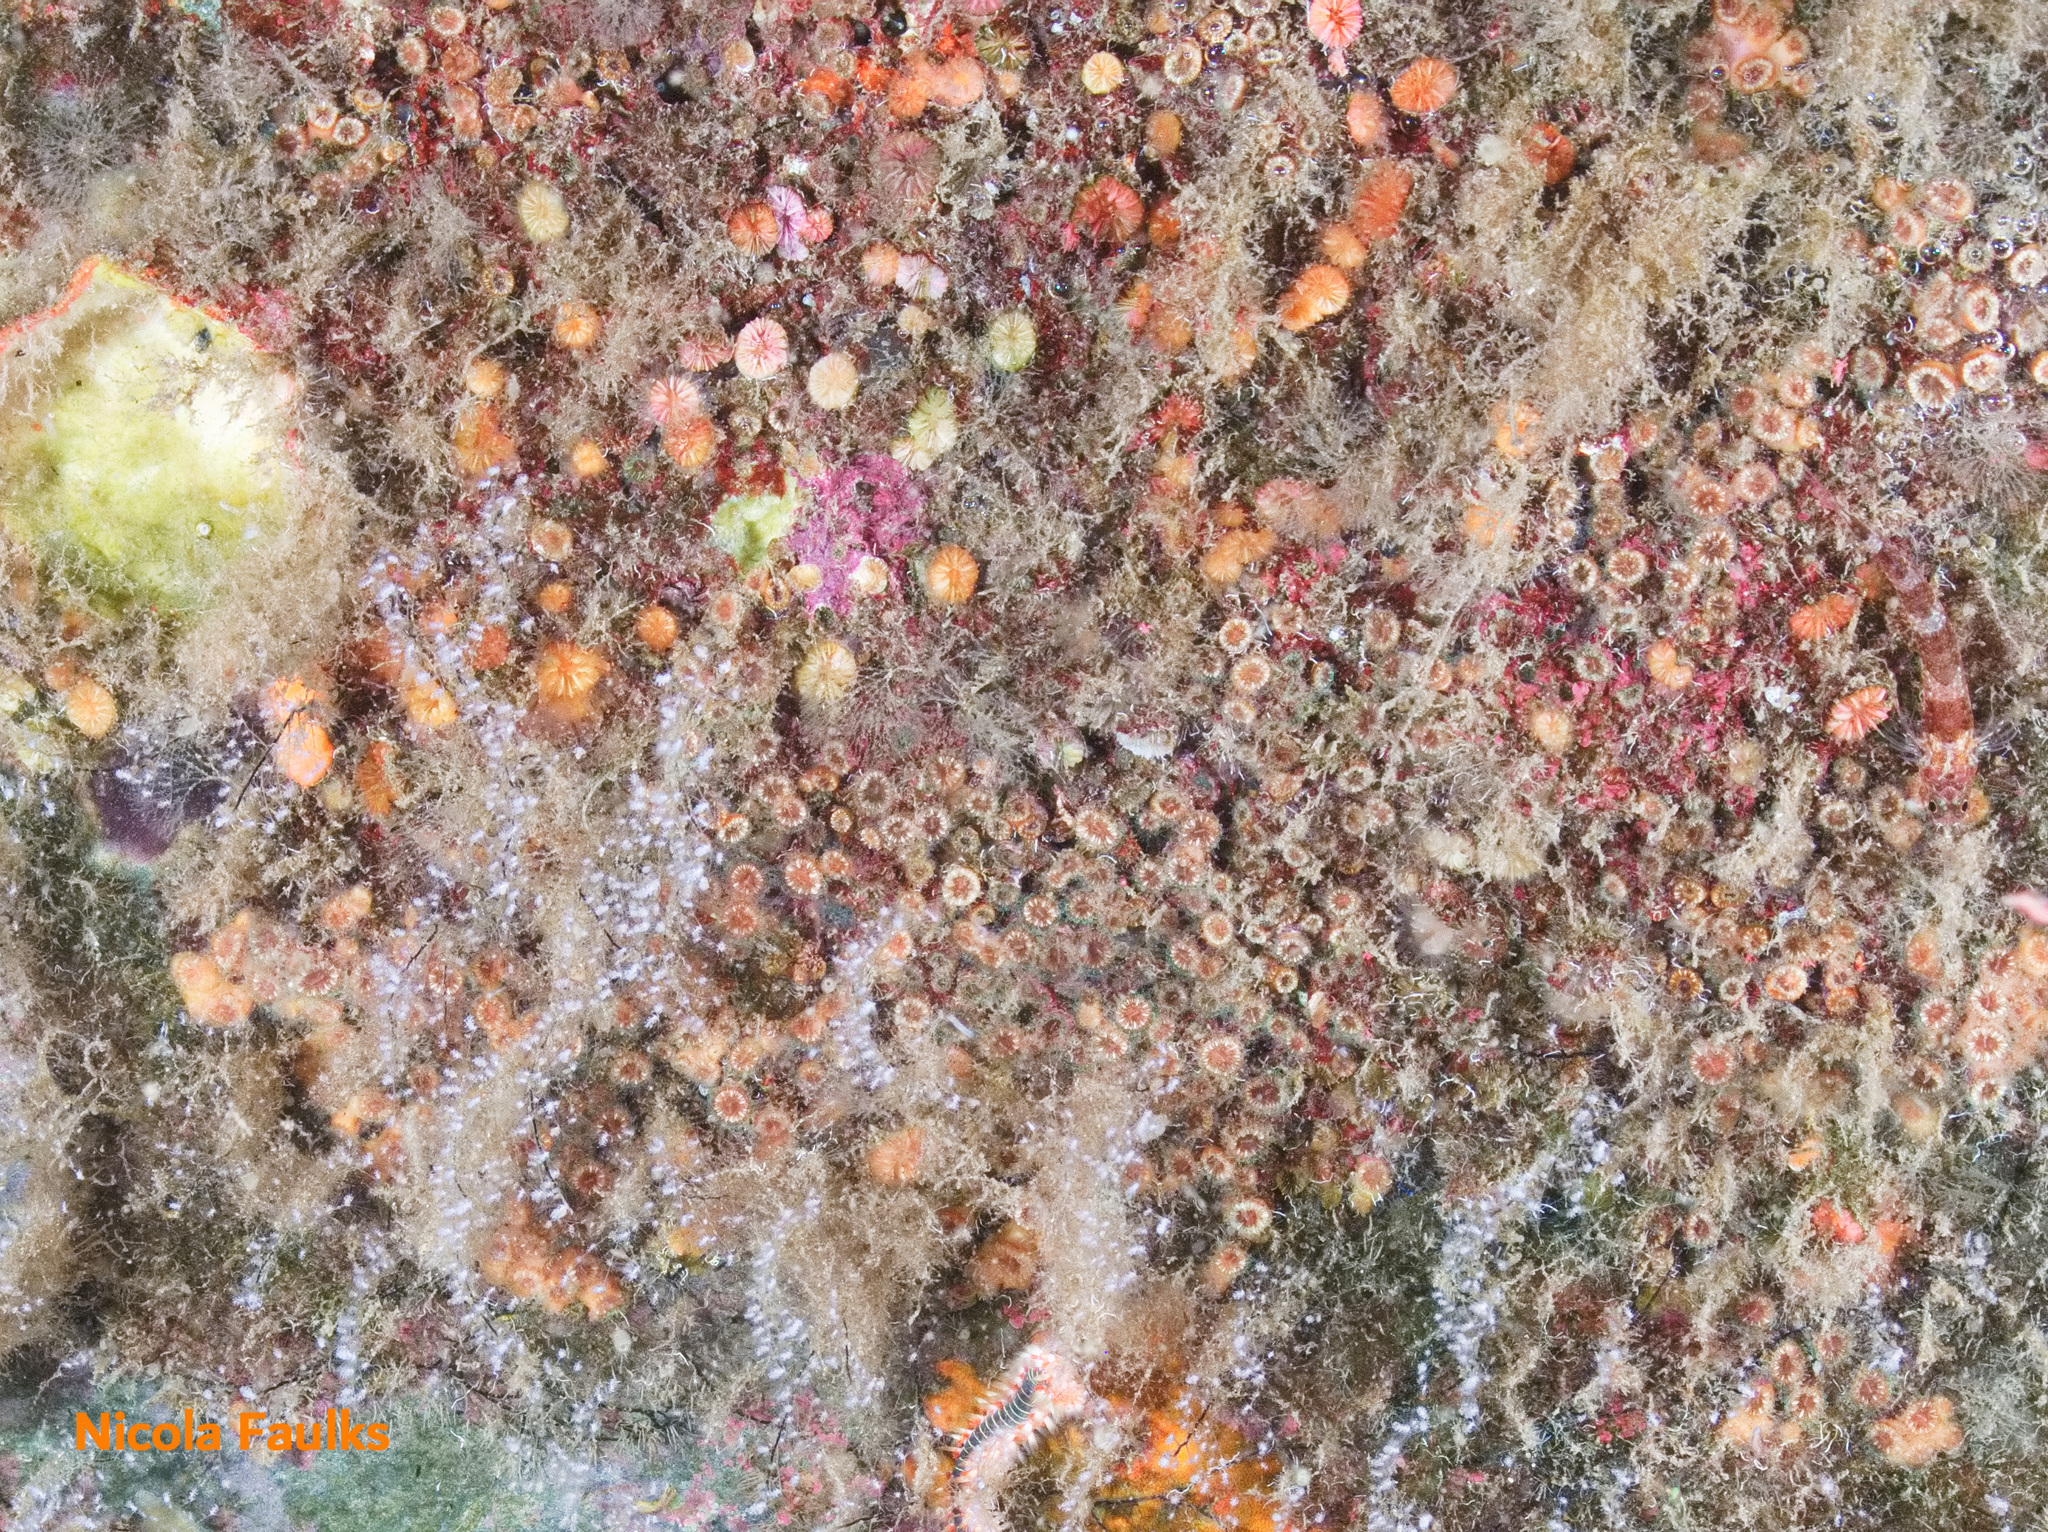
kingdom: Animalia
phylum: Cnidaria
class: Anthozoa
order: Scleractinia
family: Caryophylliidae
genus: Caryophyllia
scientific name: Caryophyllia inornata
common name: Circular cupcoral
